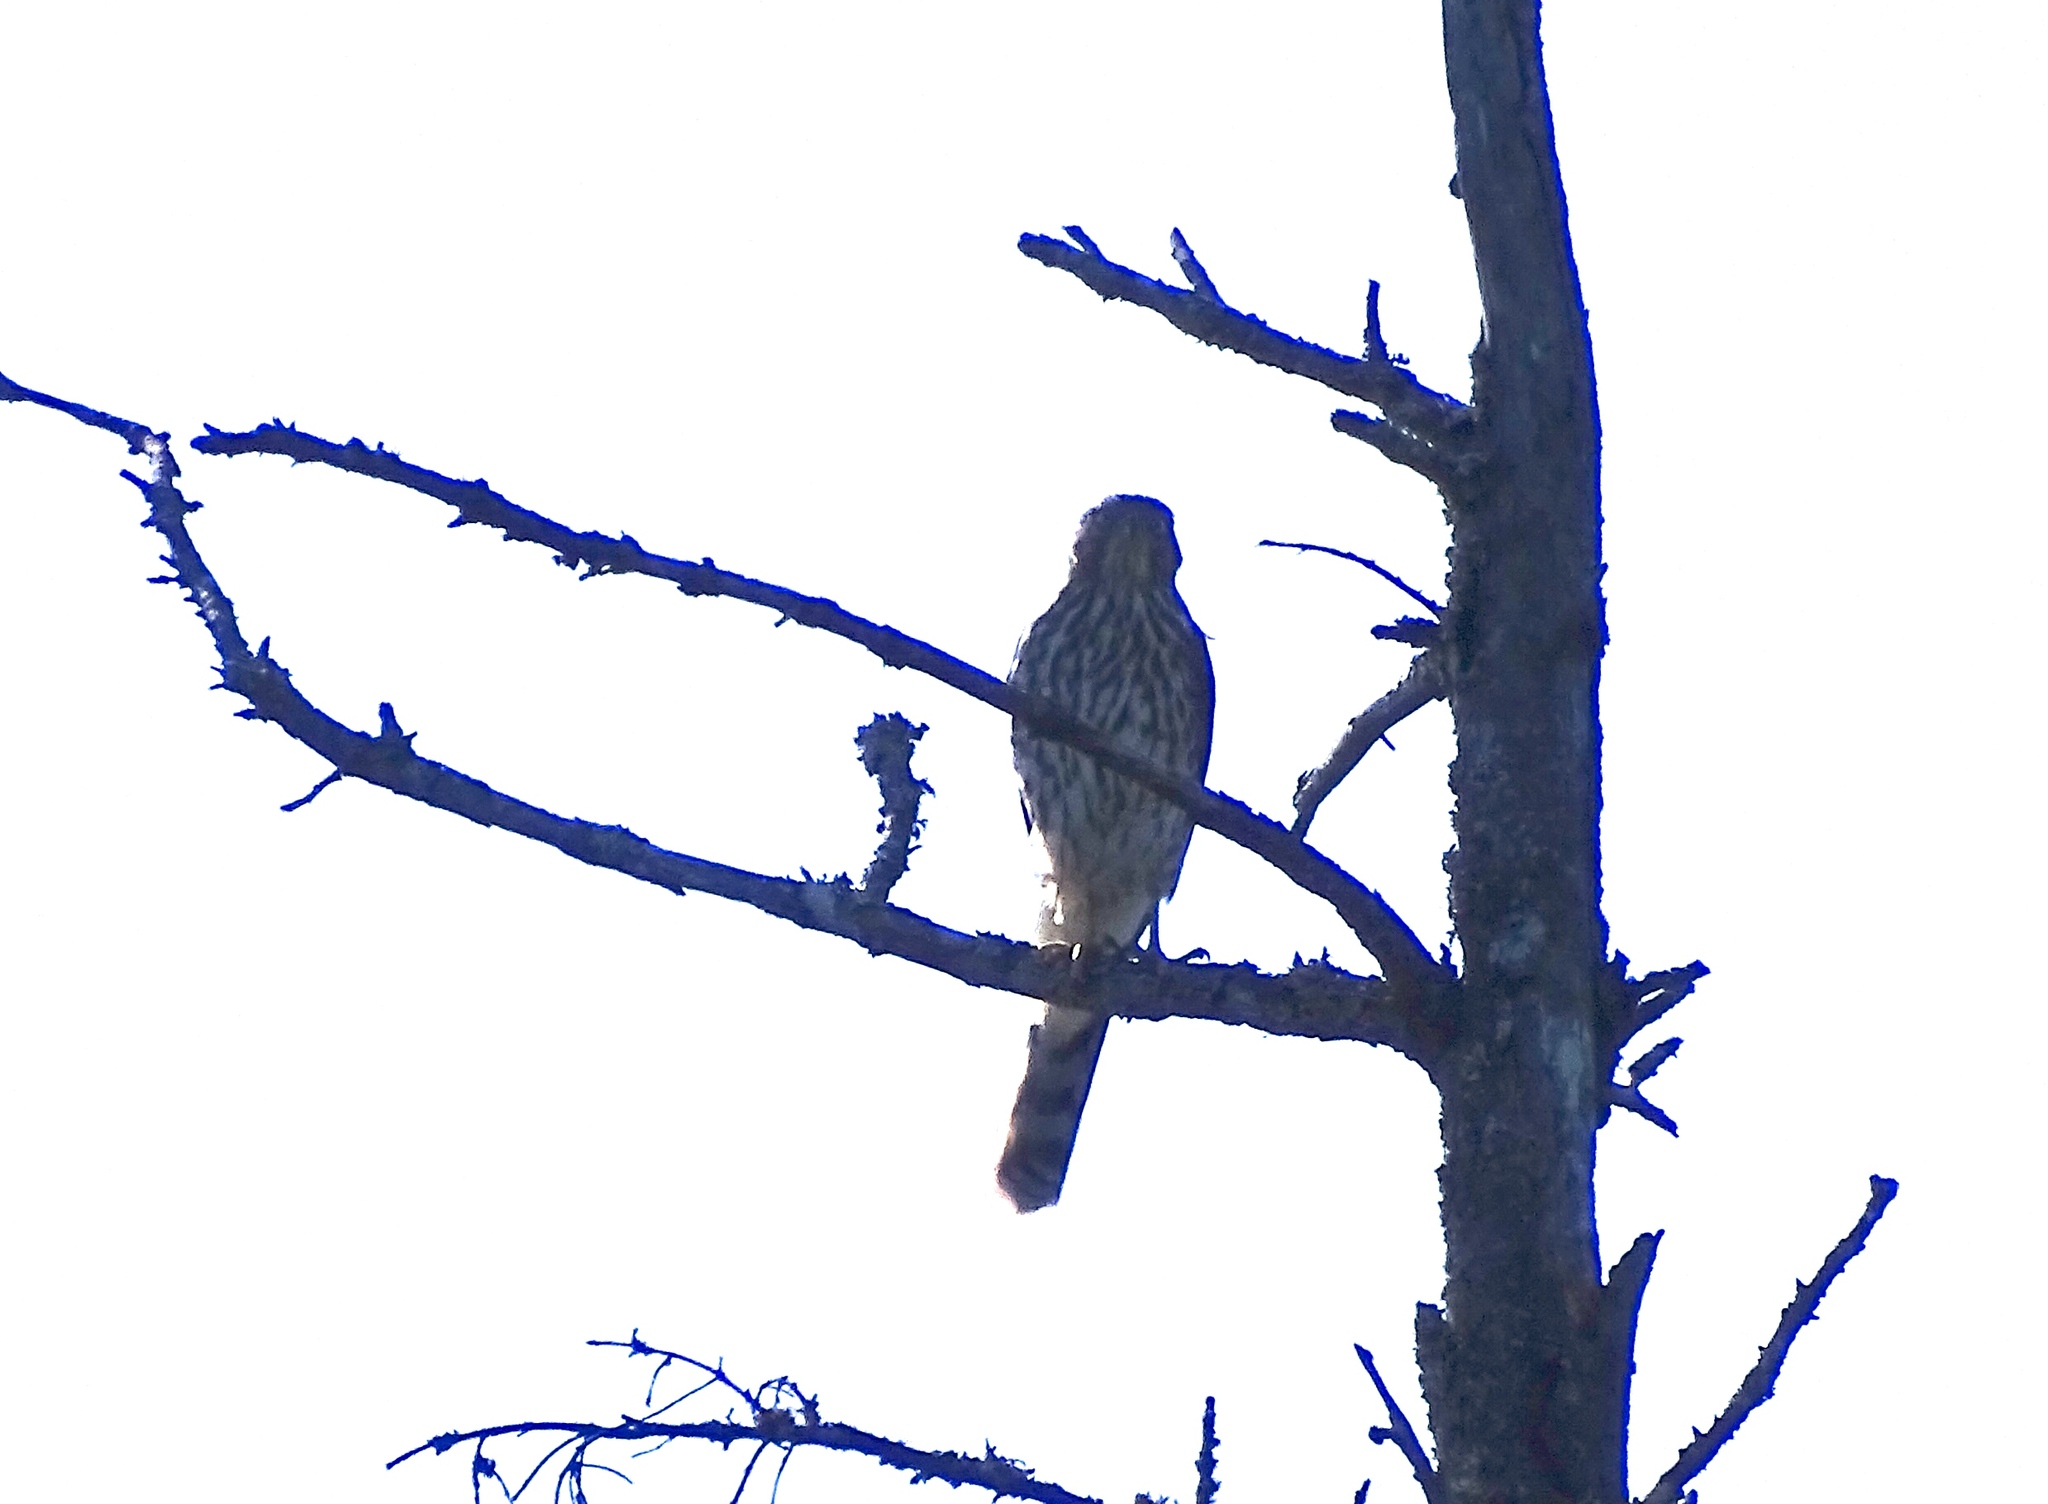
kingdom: Animalia
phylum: Chordata
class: Aves
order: Accipitriformes
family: Accipitridae
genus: Accipiter
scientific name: Accipiter cooperii
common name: Cooper's hawk
